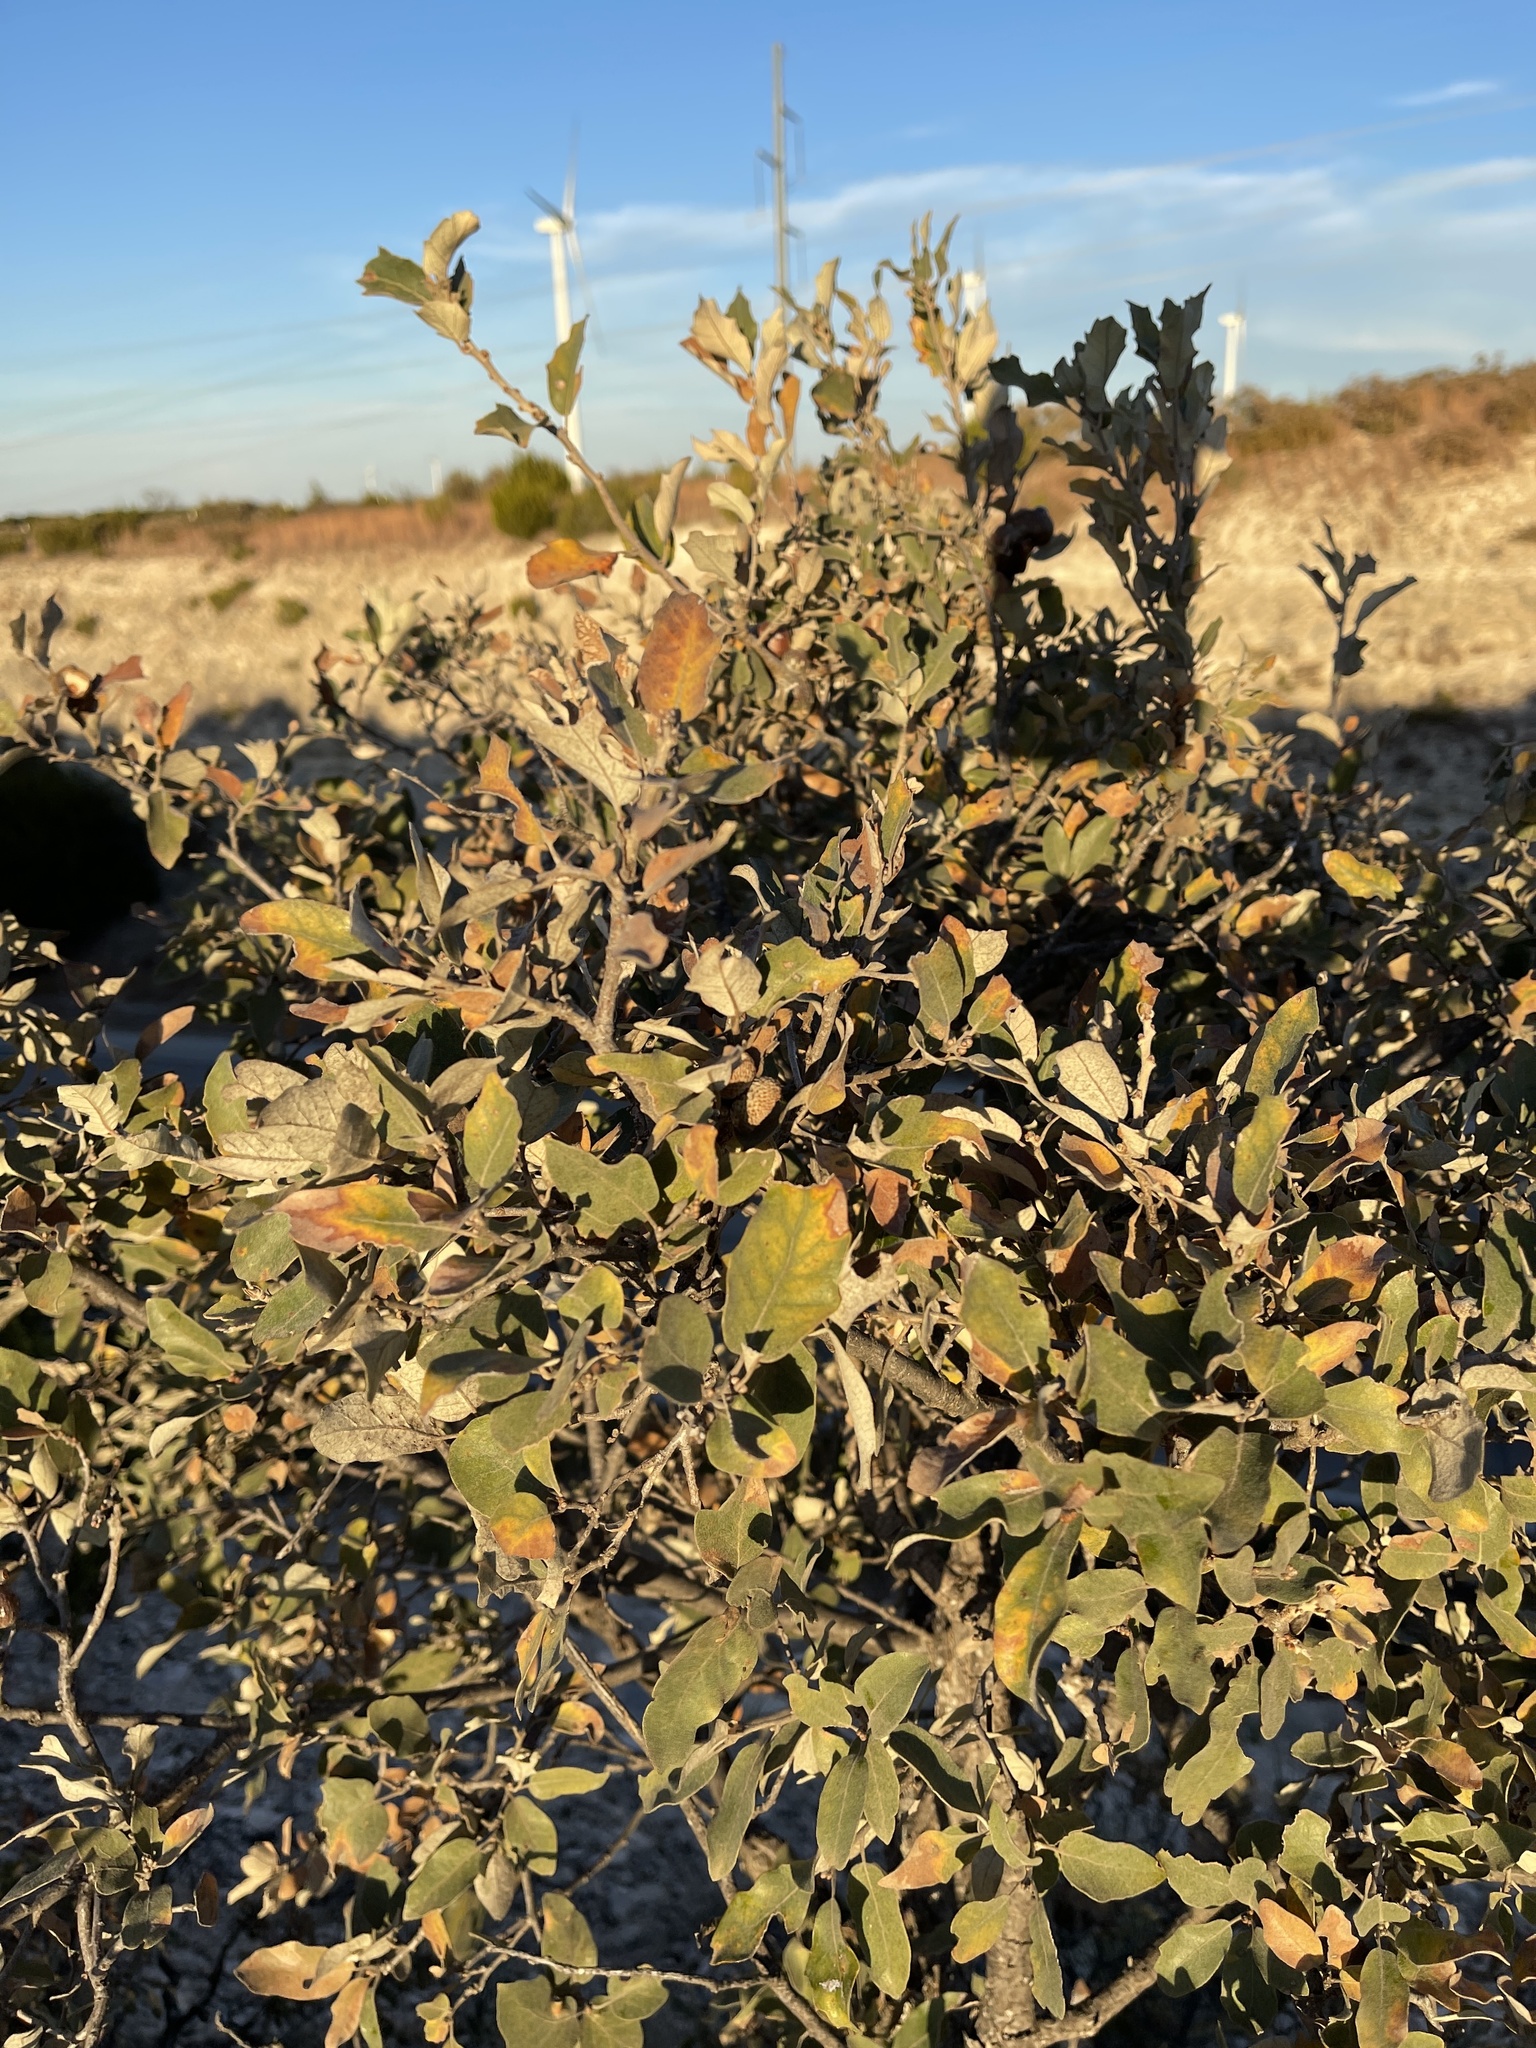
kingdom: Plantae
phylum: Tracheophyta
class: Magnoliopsida
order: Fagales
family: Fagaceae
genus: Quercus
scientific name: Quercus mohriana
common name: Mohr oak
